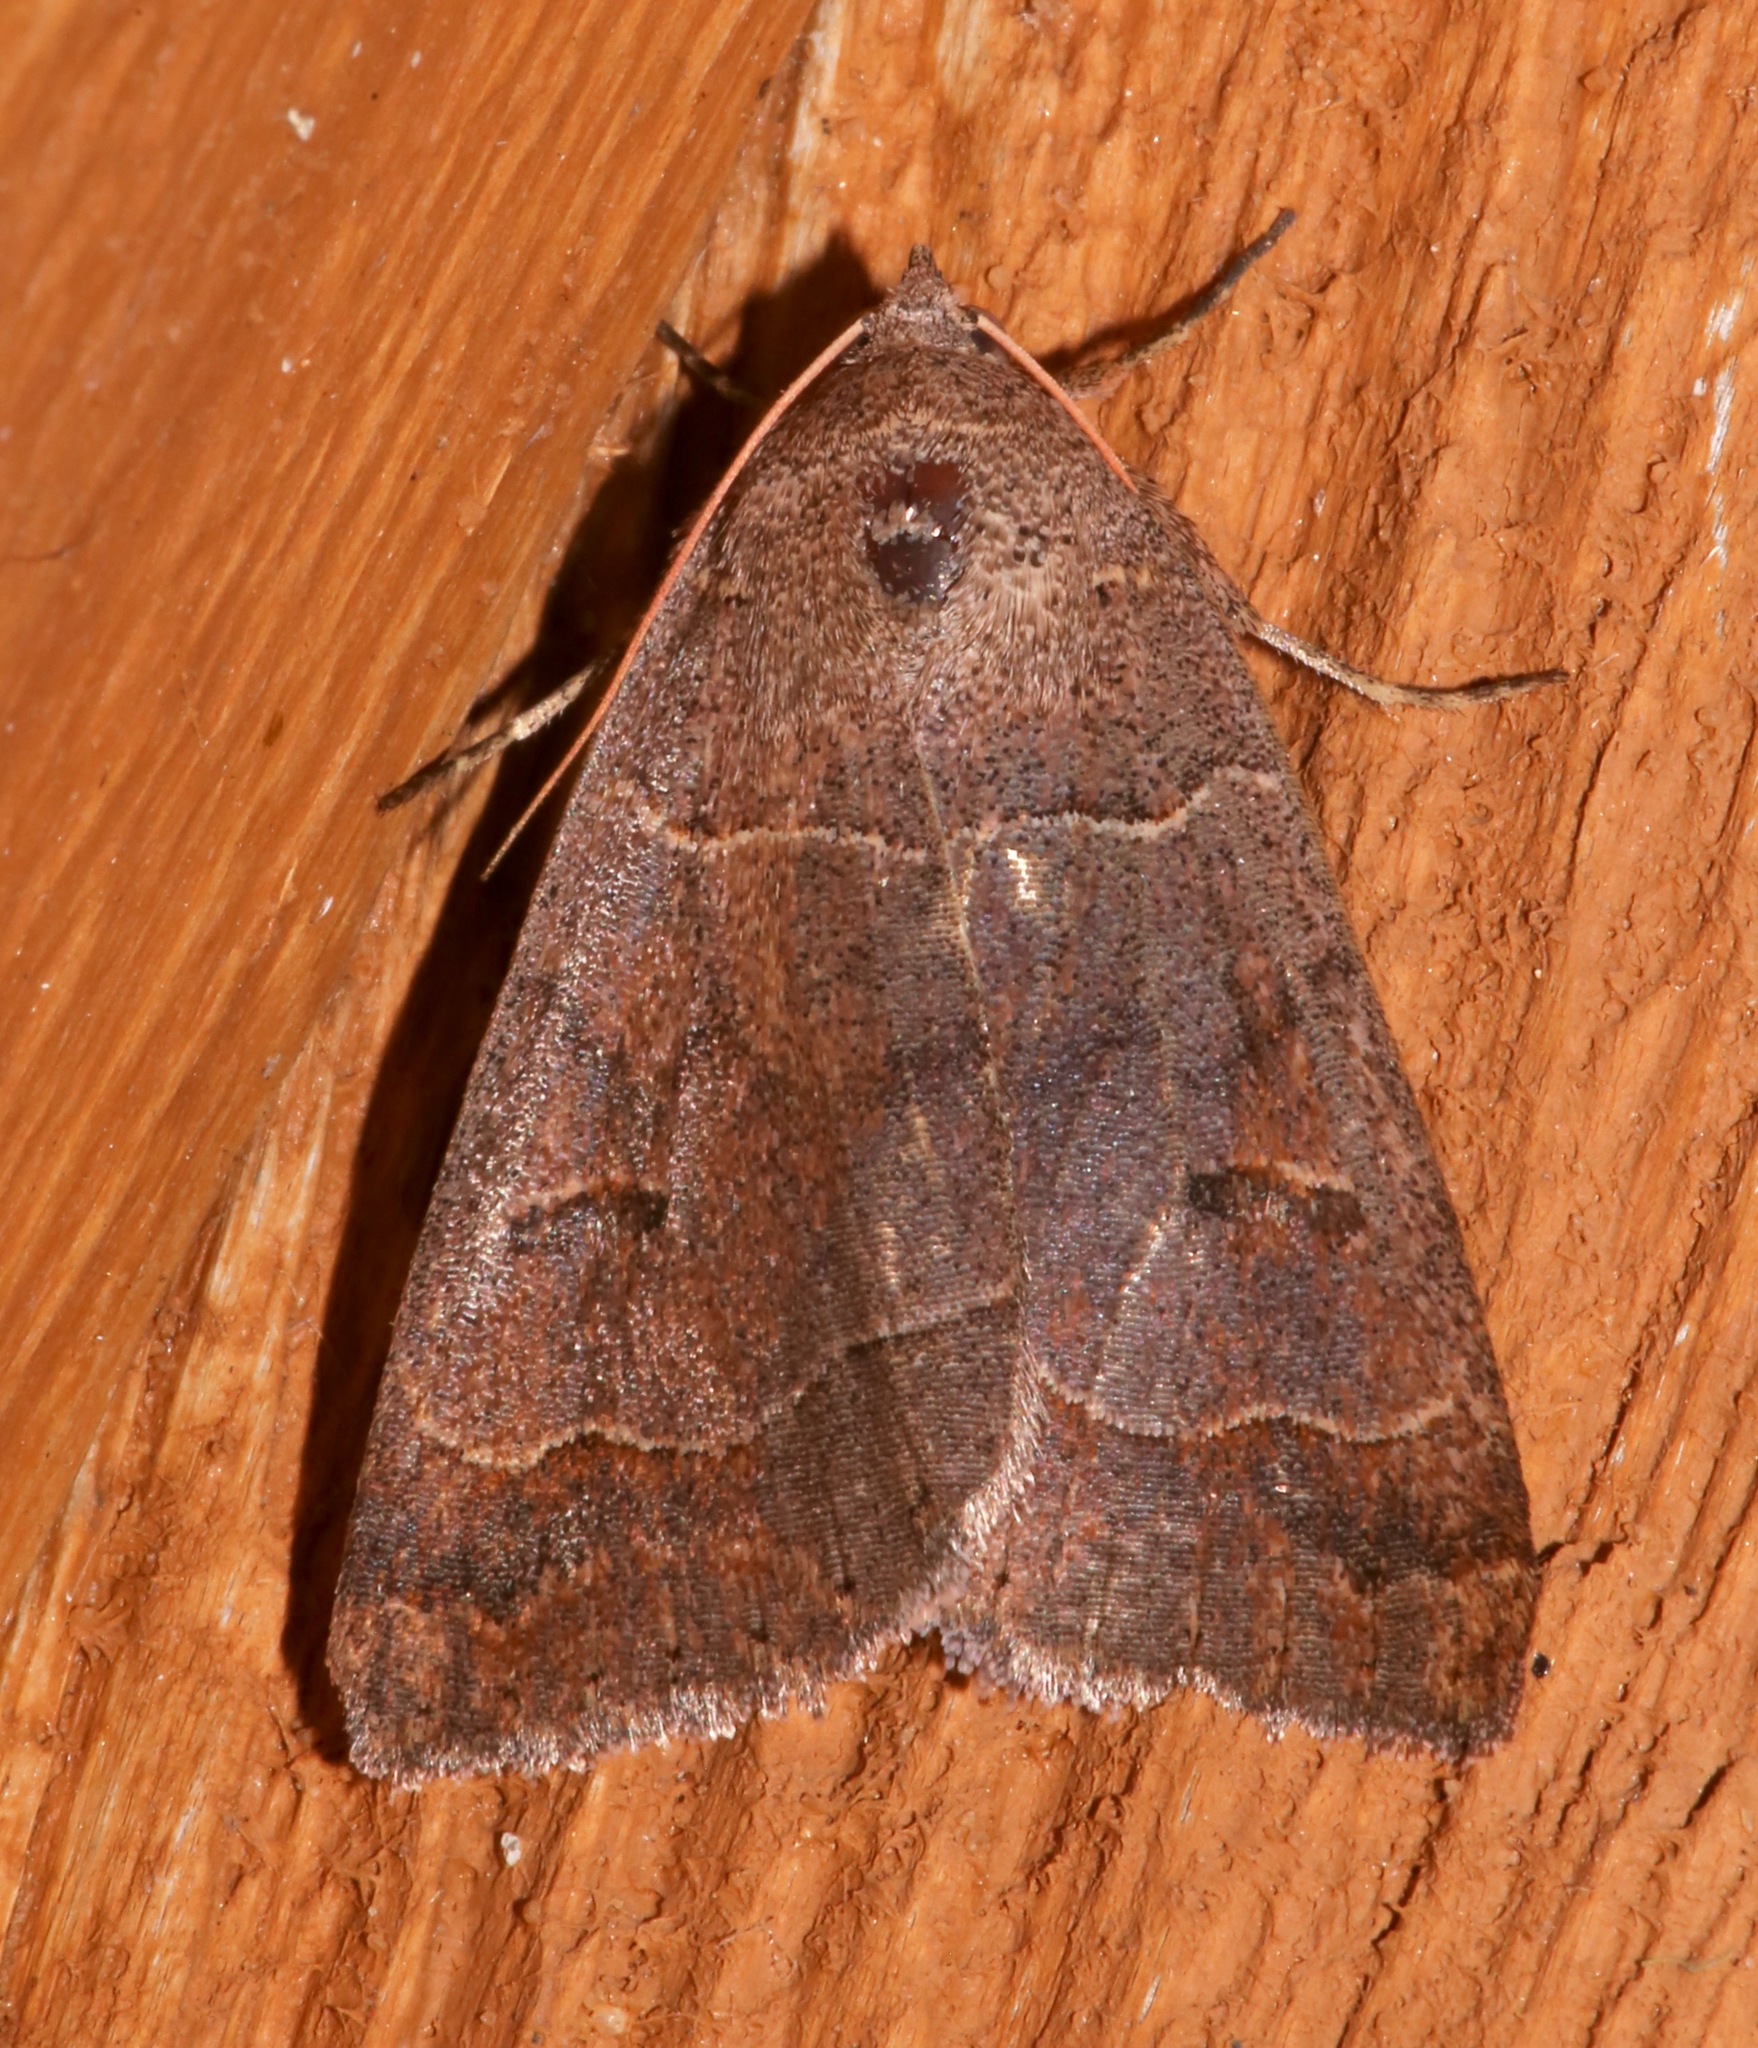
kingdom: Animalia
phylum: Arthropoda
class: Insecta
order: Lepidoptera
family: Erebidae
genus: Phoberia
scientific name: Phoberia atomaris
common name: Common oak moth
